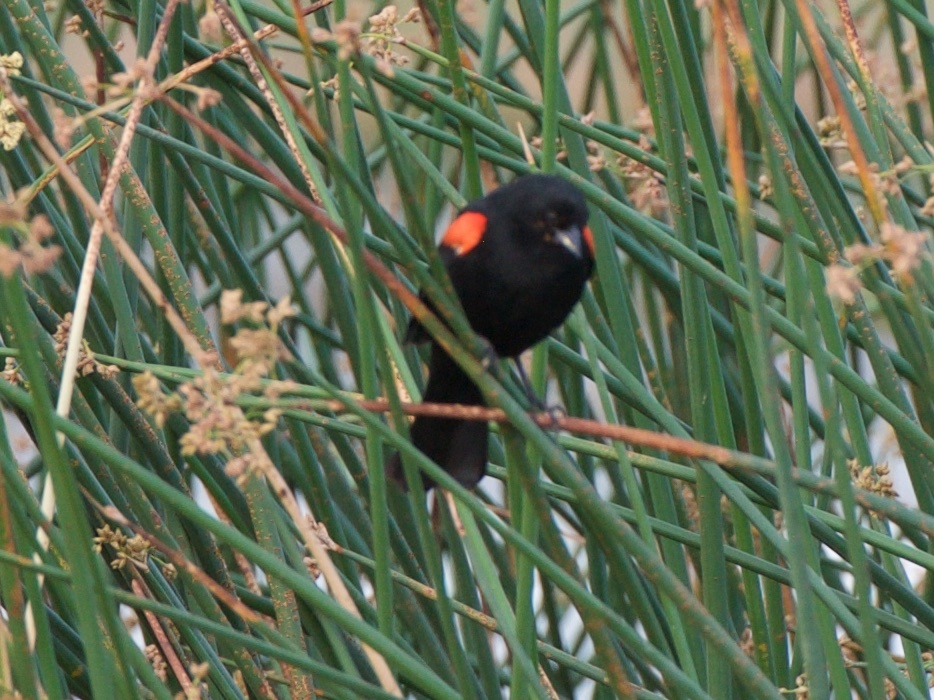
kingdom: Animalia
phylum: Chordata
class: Aves
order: Passeriformes
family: Icteridae
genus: Agelaius
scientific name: Agelaius phoeniceus
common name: Red-winged blackbird
